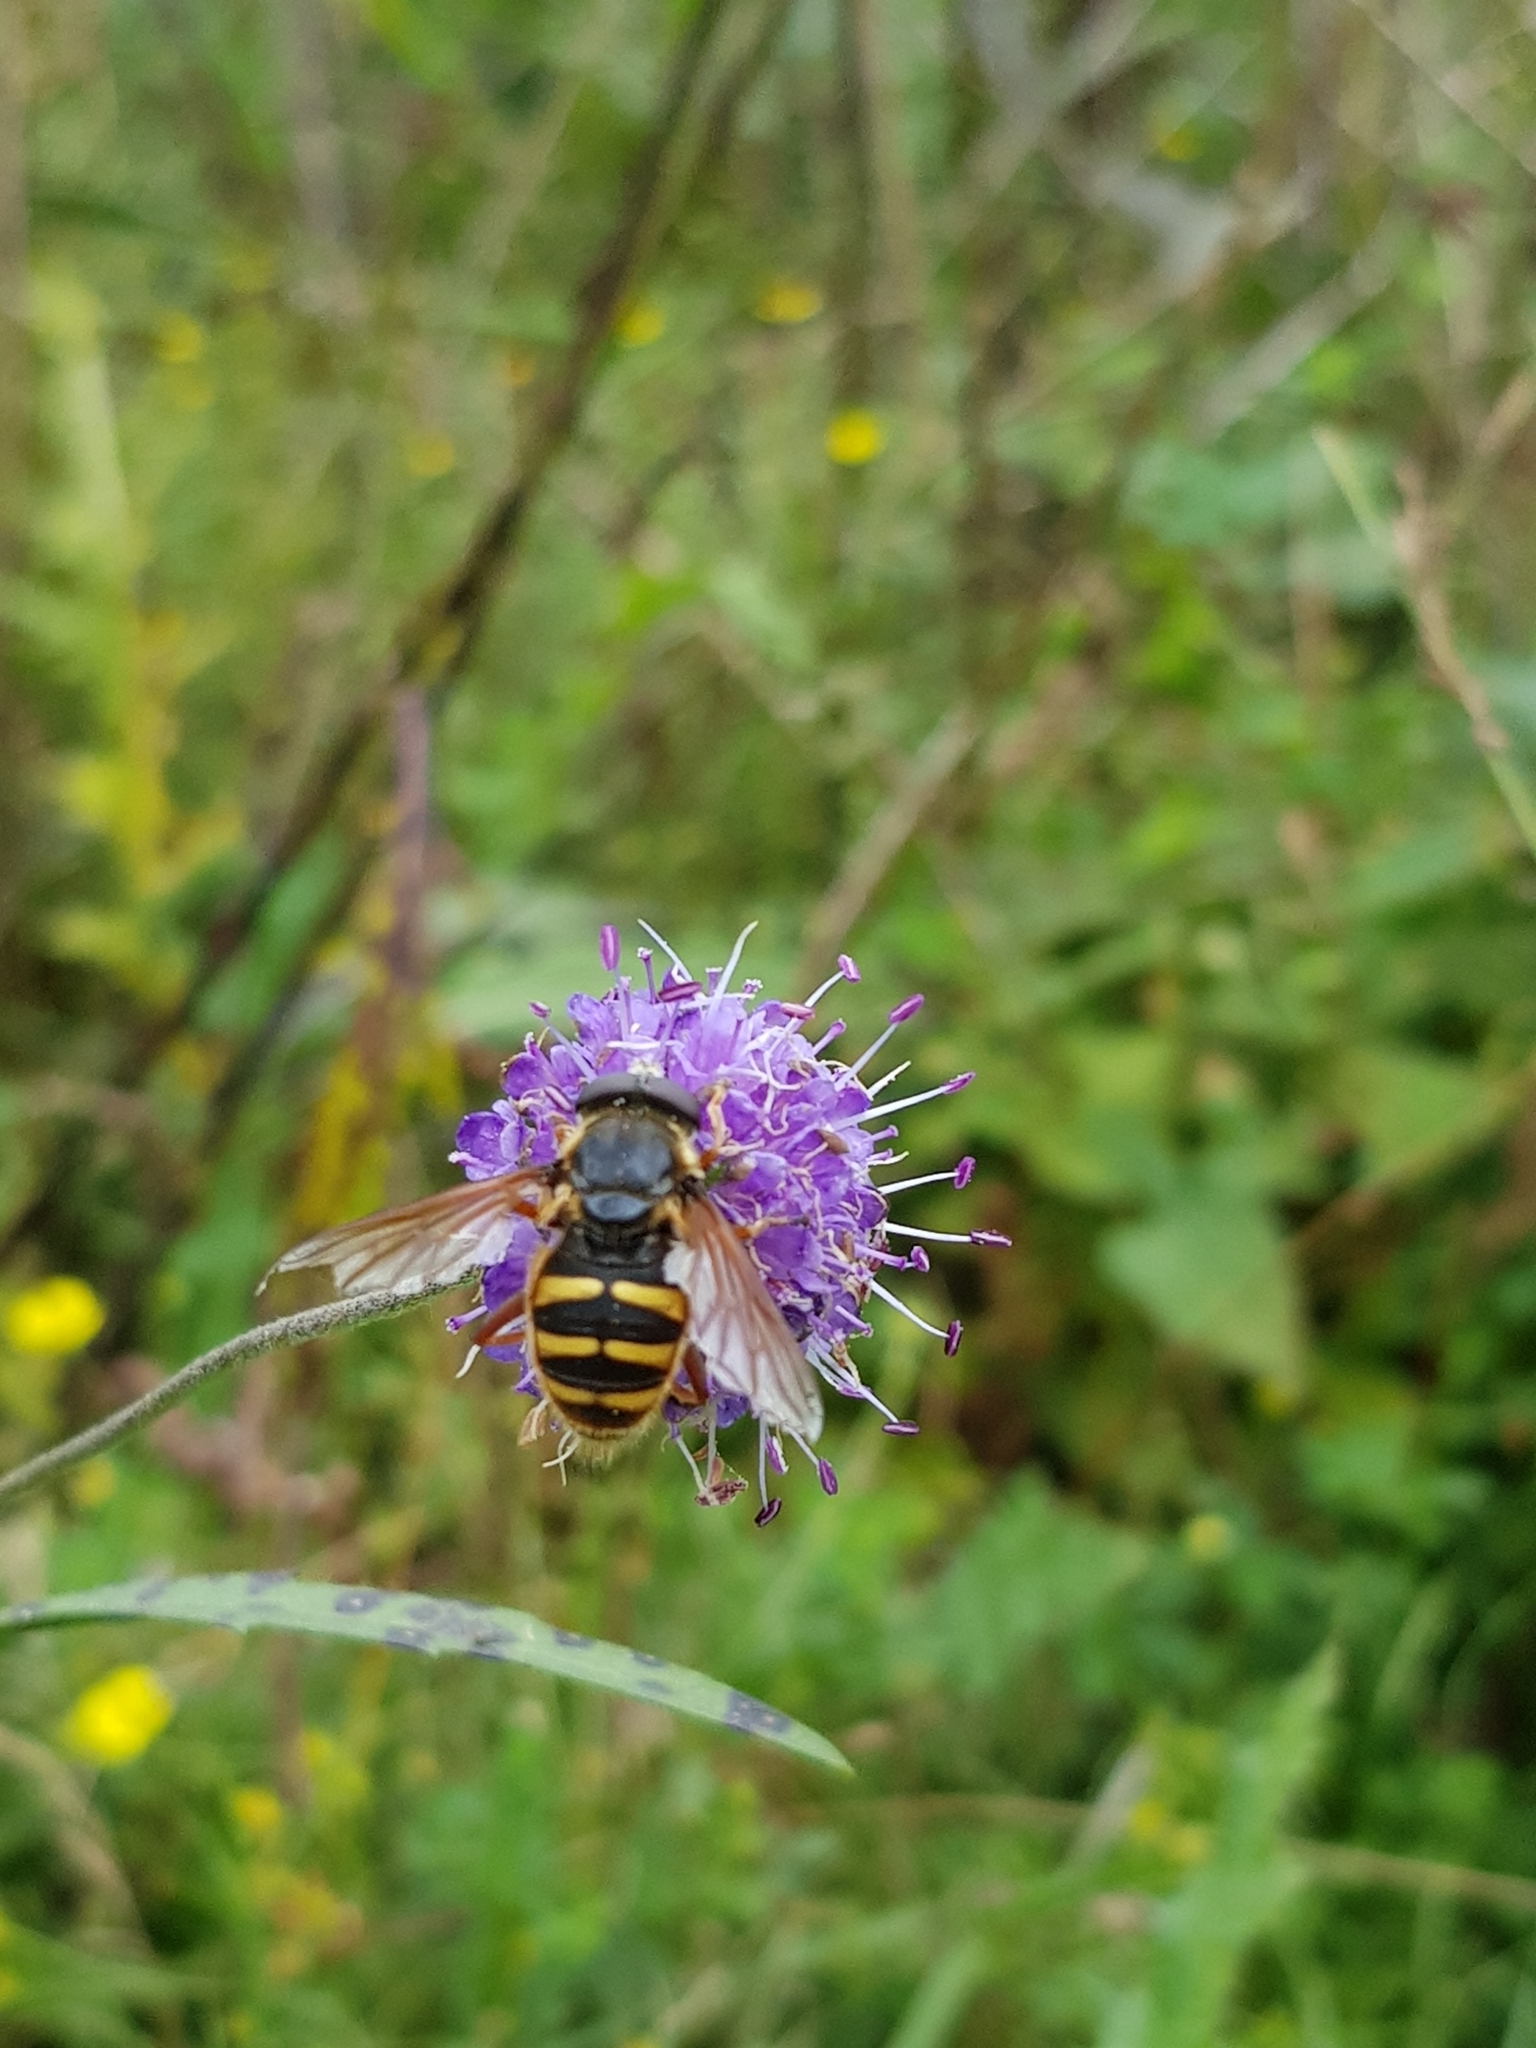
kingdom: Animalia
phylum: Arthropoda
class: Insecta
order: Diptera
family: Syrphidae
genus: Sericomyia
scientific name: Sericomyia silentis
